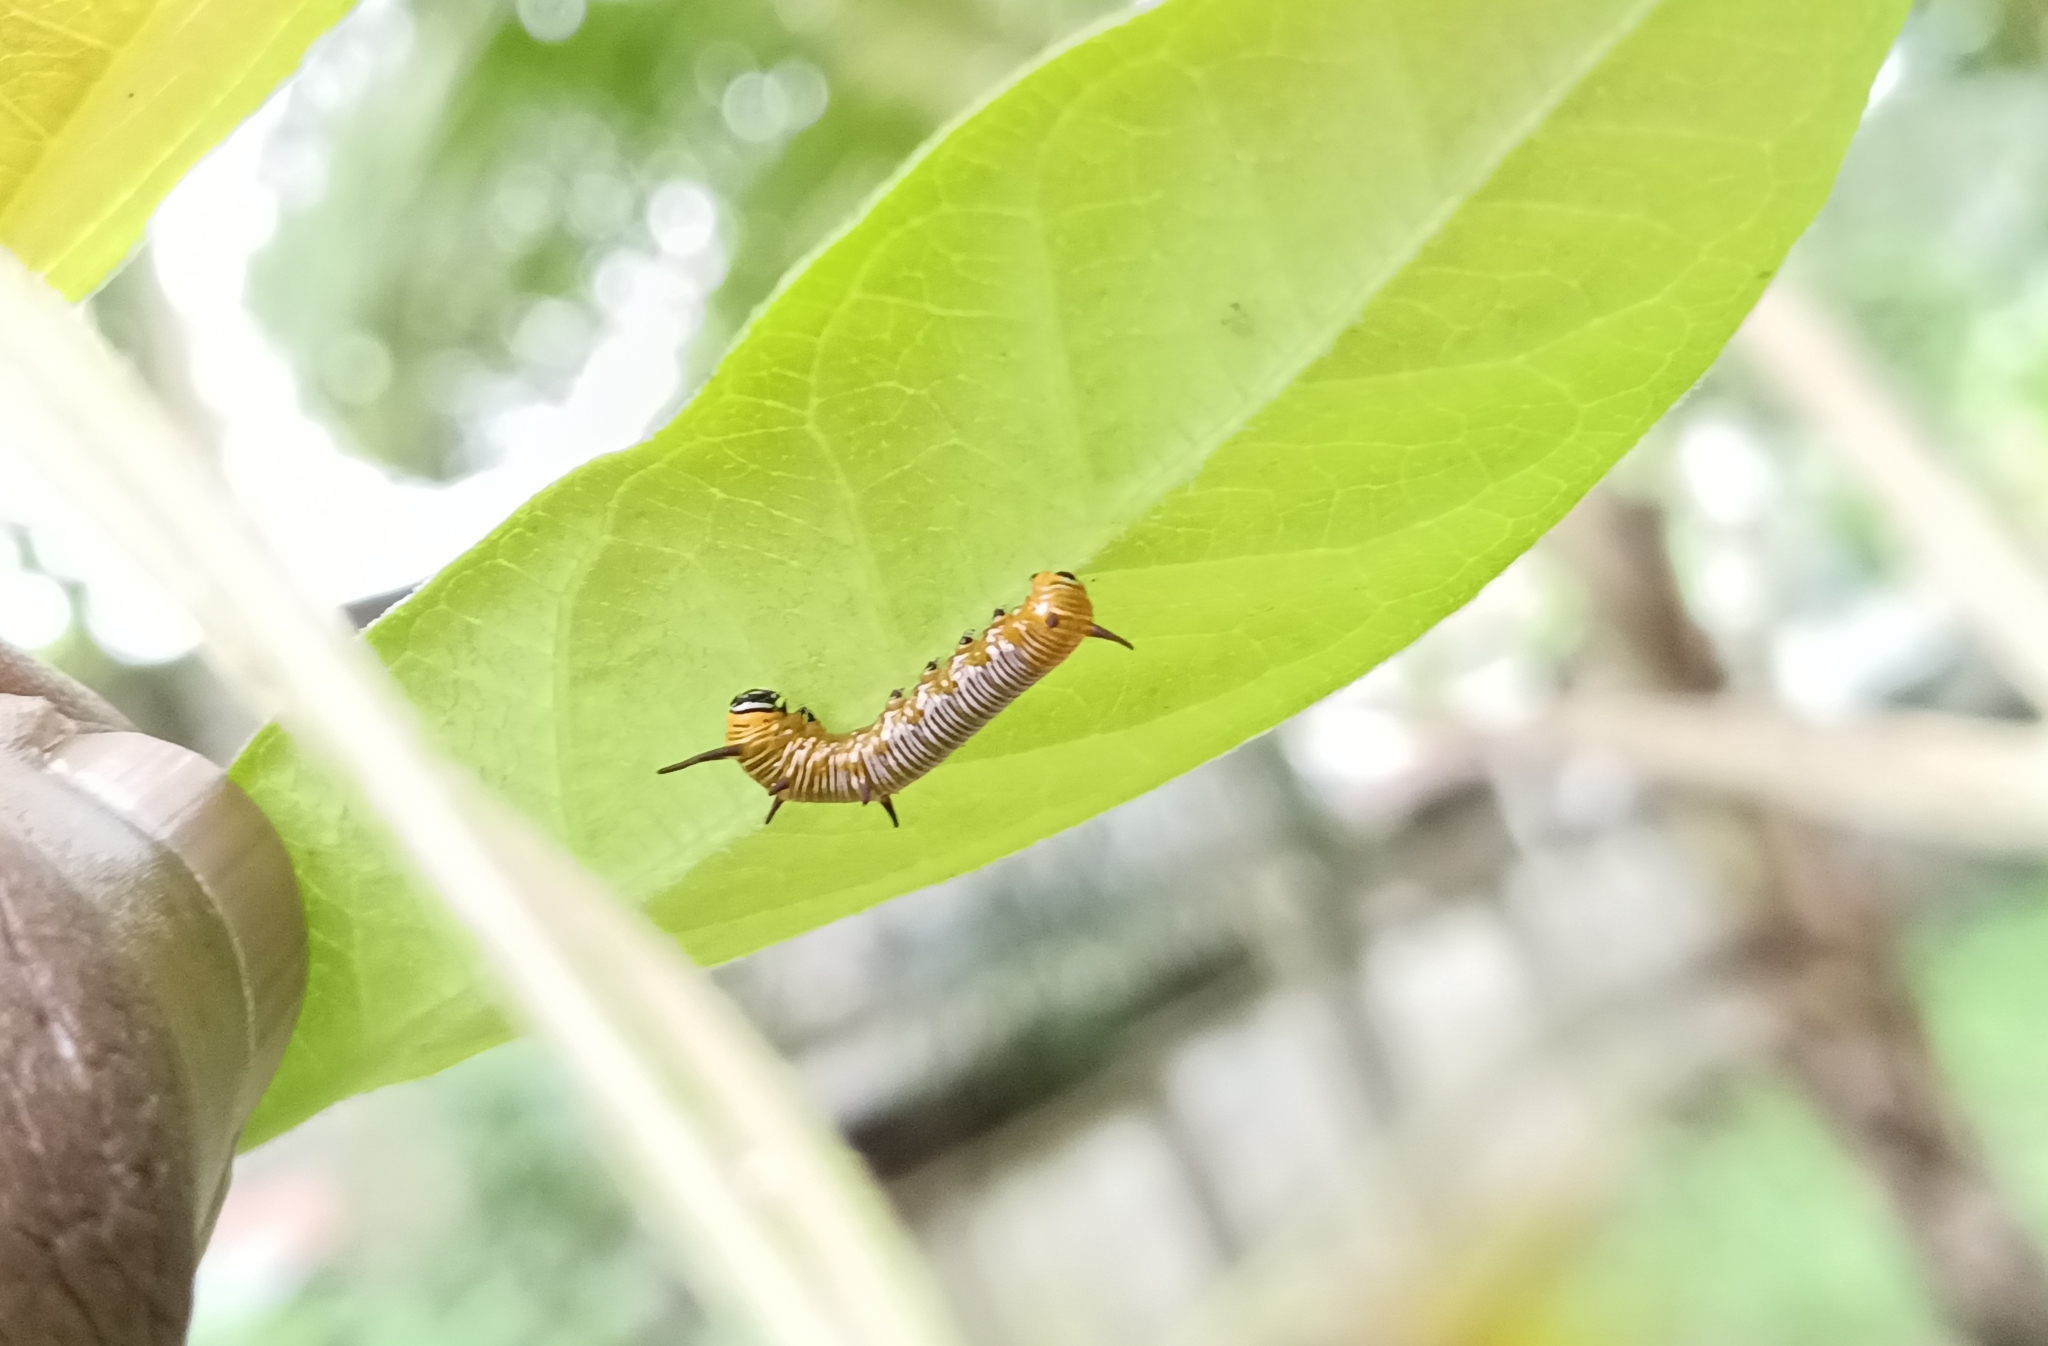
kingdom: Animalia
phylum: Arthropoda
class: Insecta
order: Lepidoptera
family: Nymphalidae
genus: Euploea
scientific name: Euploea core
